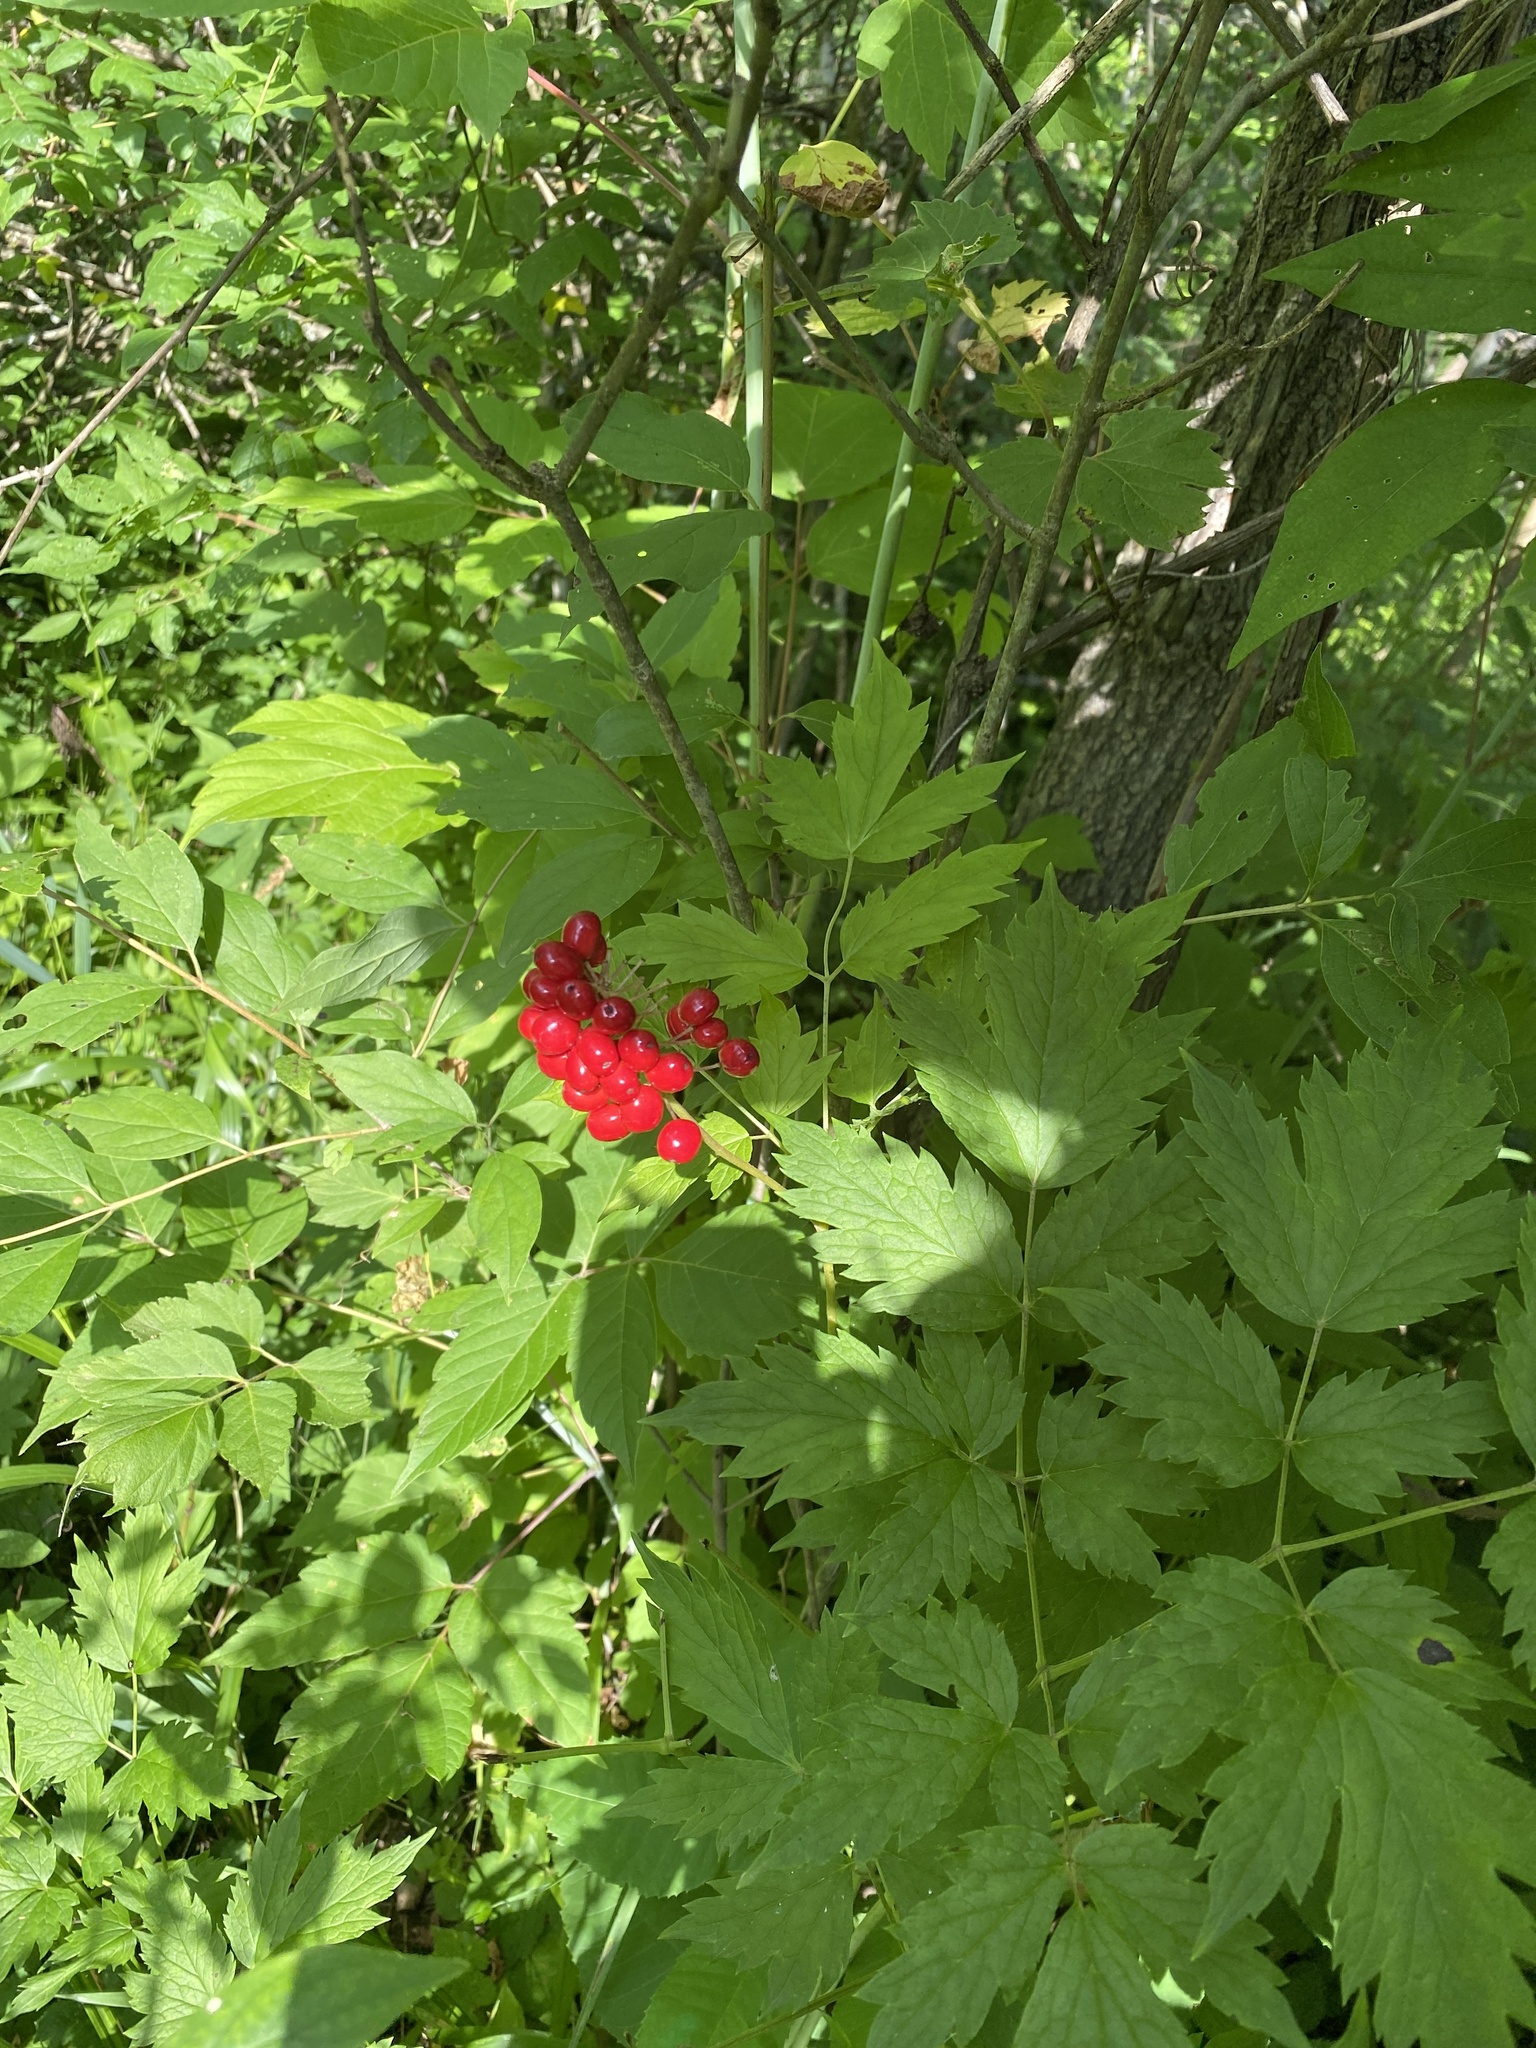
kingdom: Plantae
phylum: Tracheophyta
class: Magnoliopsida
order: Ranunculales
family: Ranunculaceae
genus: Actaea
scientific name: Actaea rubra
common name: Red baneberry
